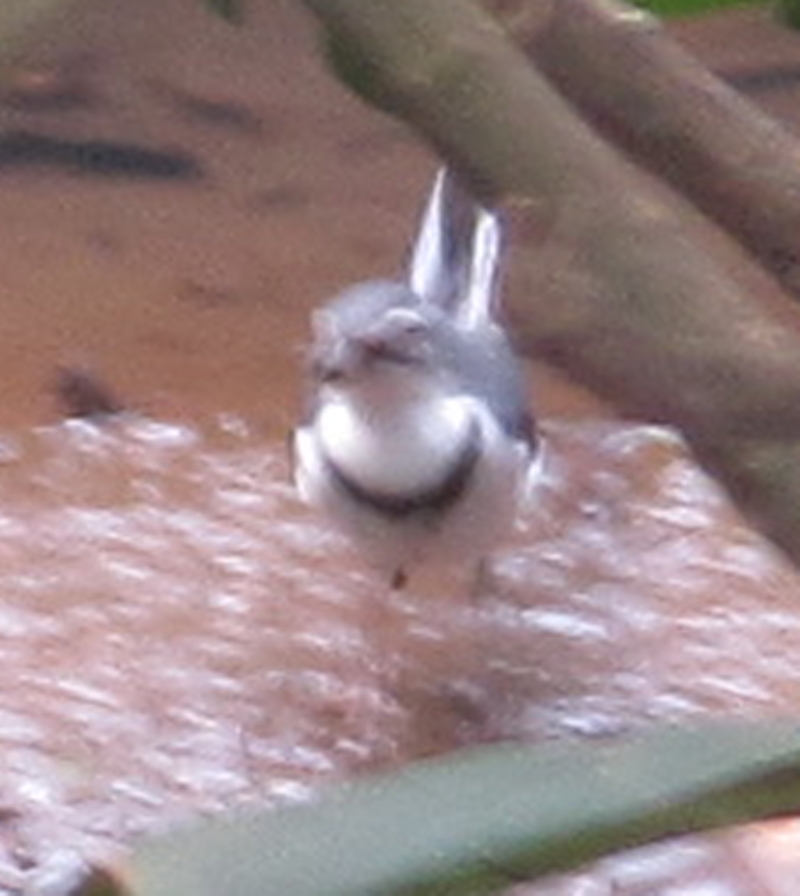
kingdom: Animalia
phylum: Chordata
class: Aves
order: Passeriformes
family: Motacillidae
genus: Motacilla
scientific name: Motacilla clara
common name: Mountain wagtail
